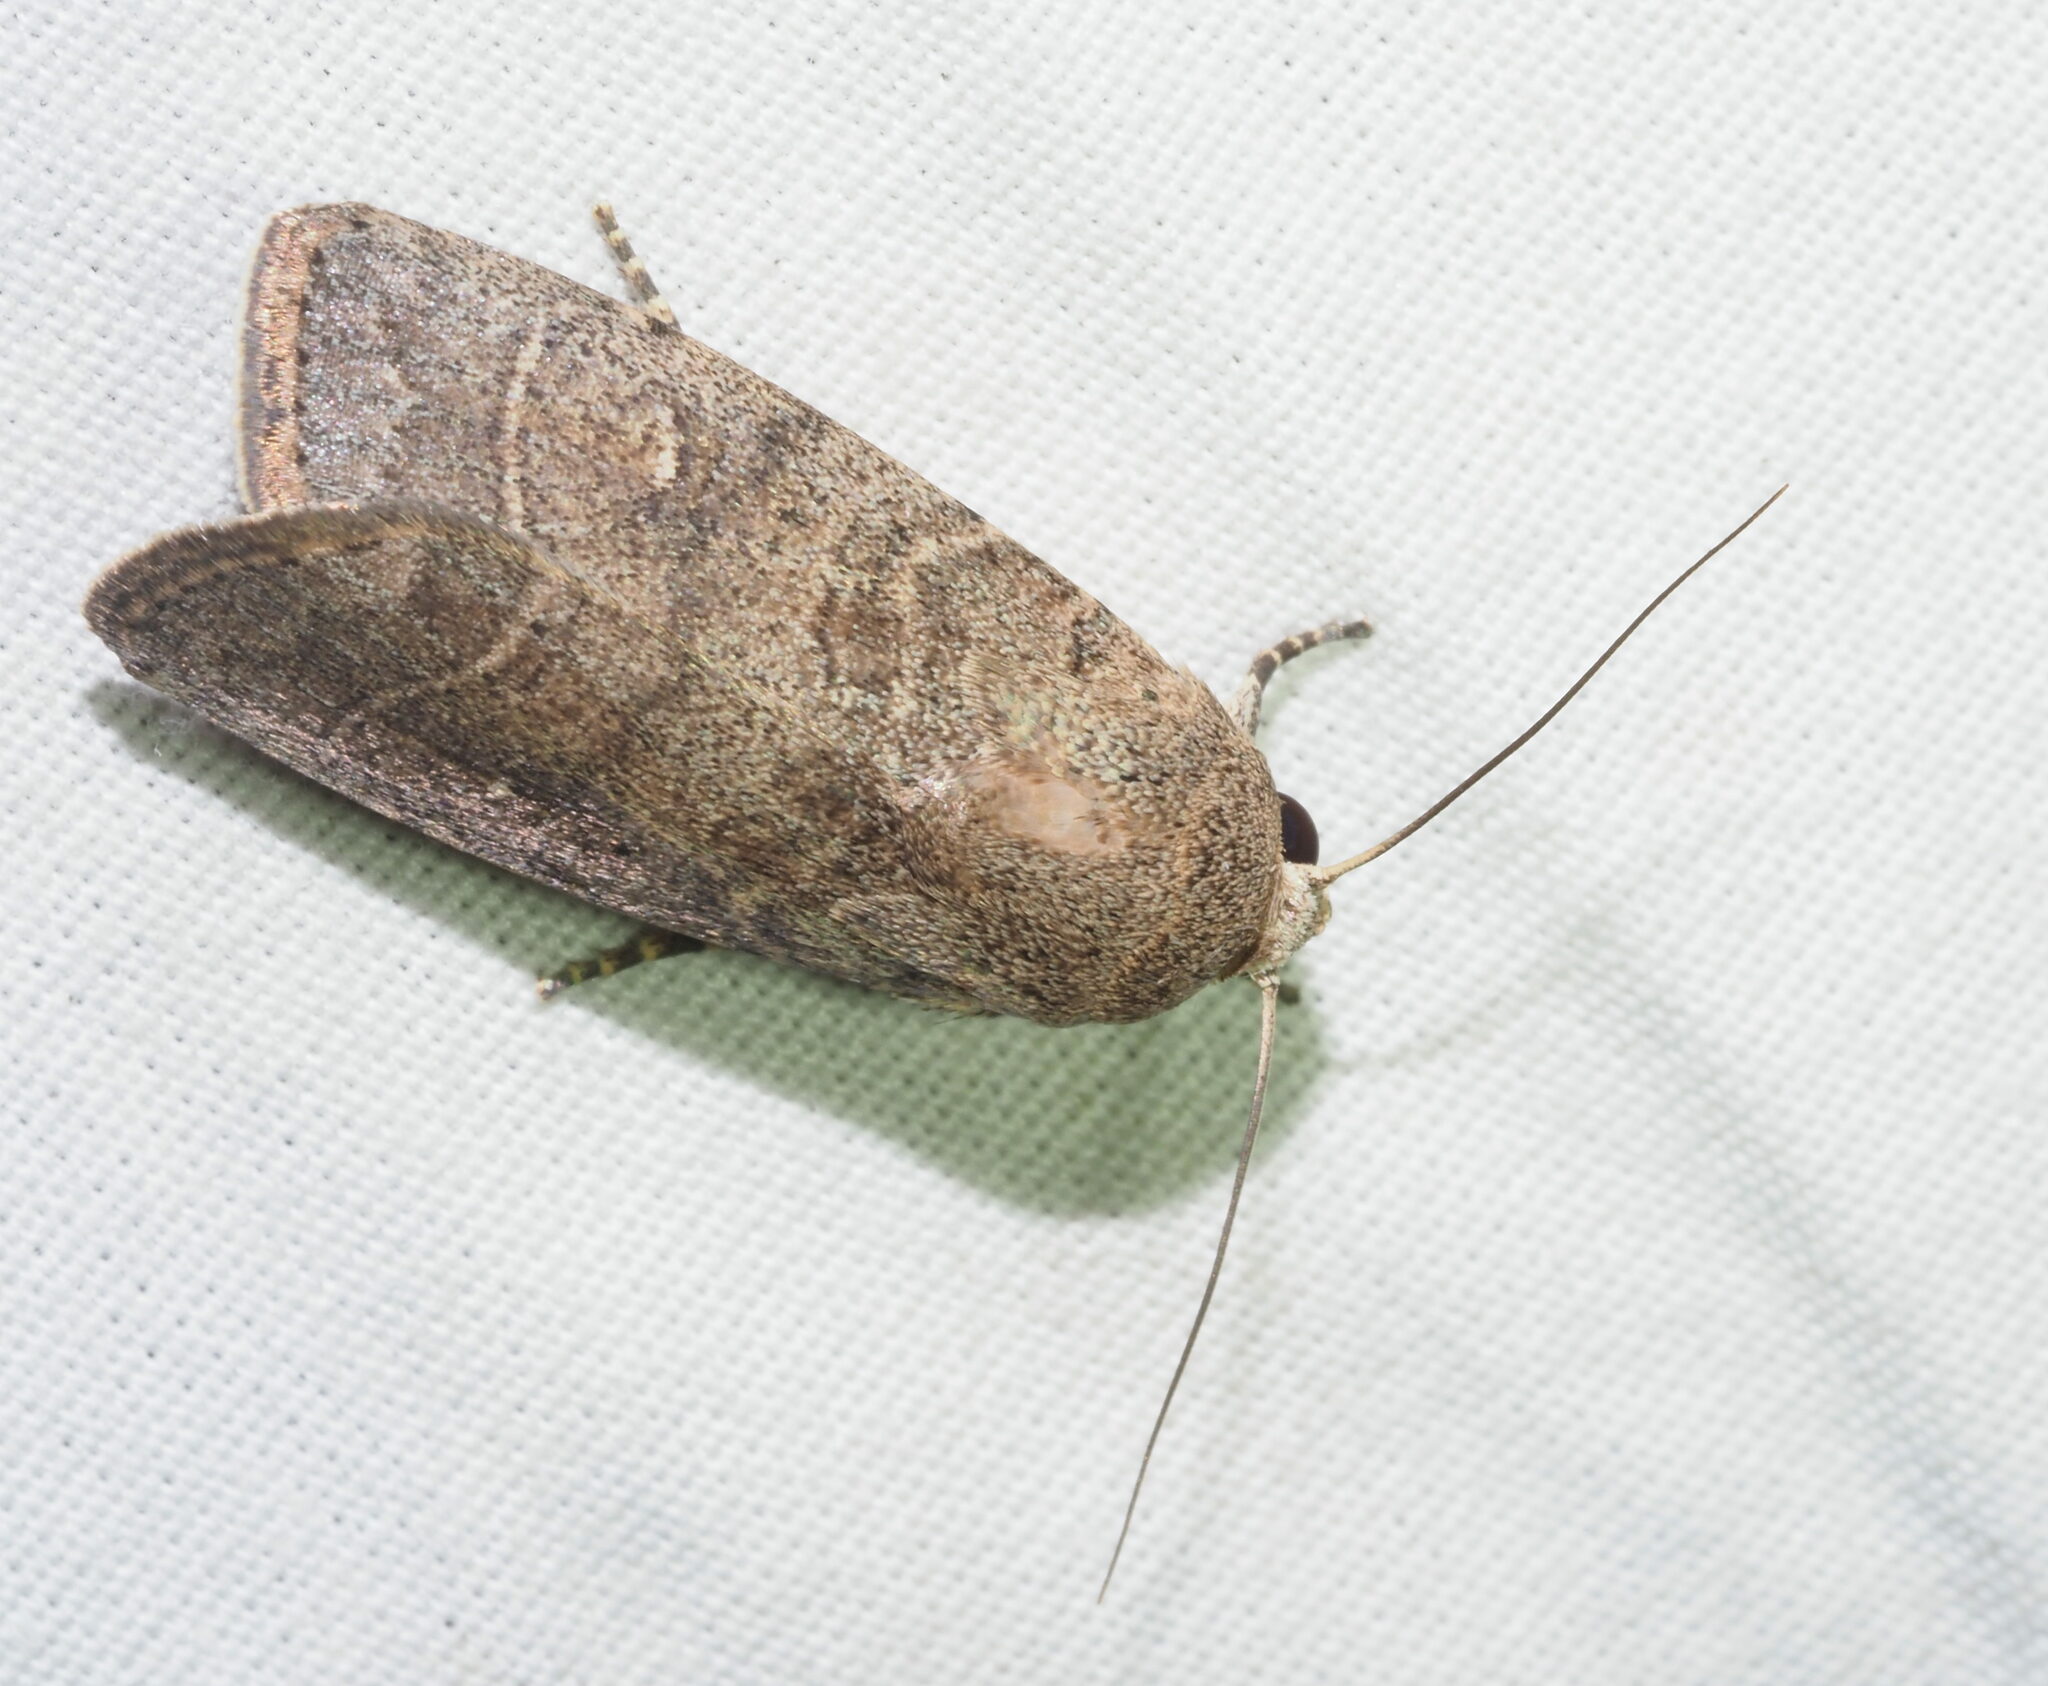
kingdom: Animalia
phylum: Arthropoda
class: Insecta
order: Lepidoptera
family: Noctuidae
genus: Athetis
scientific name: Athetis thoracica
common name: Cutworm
